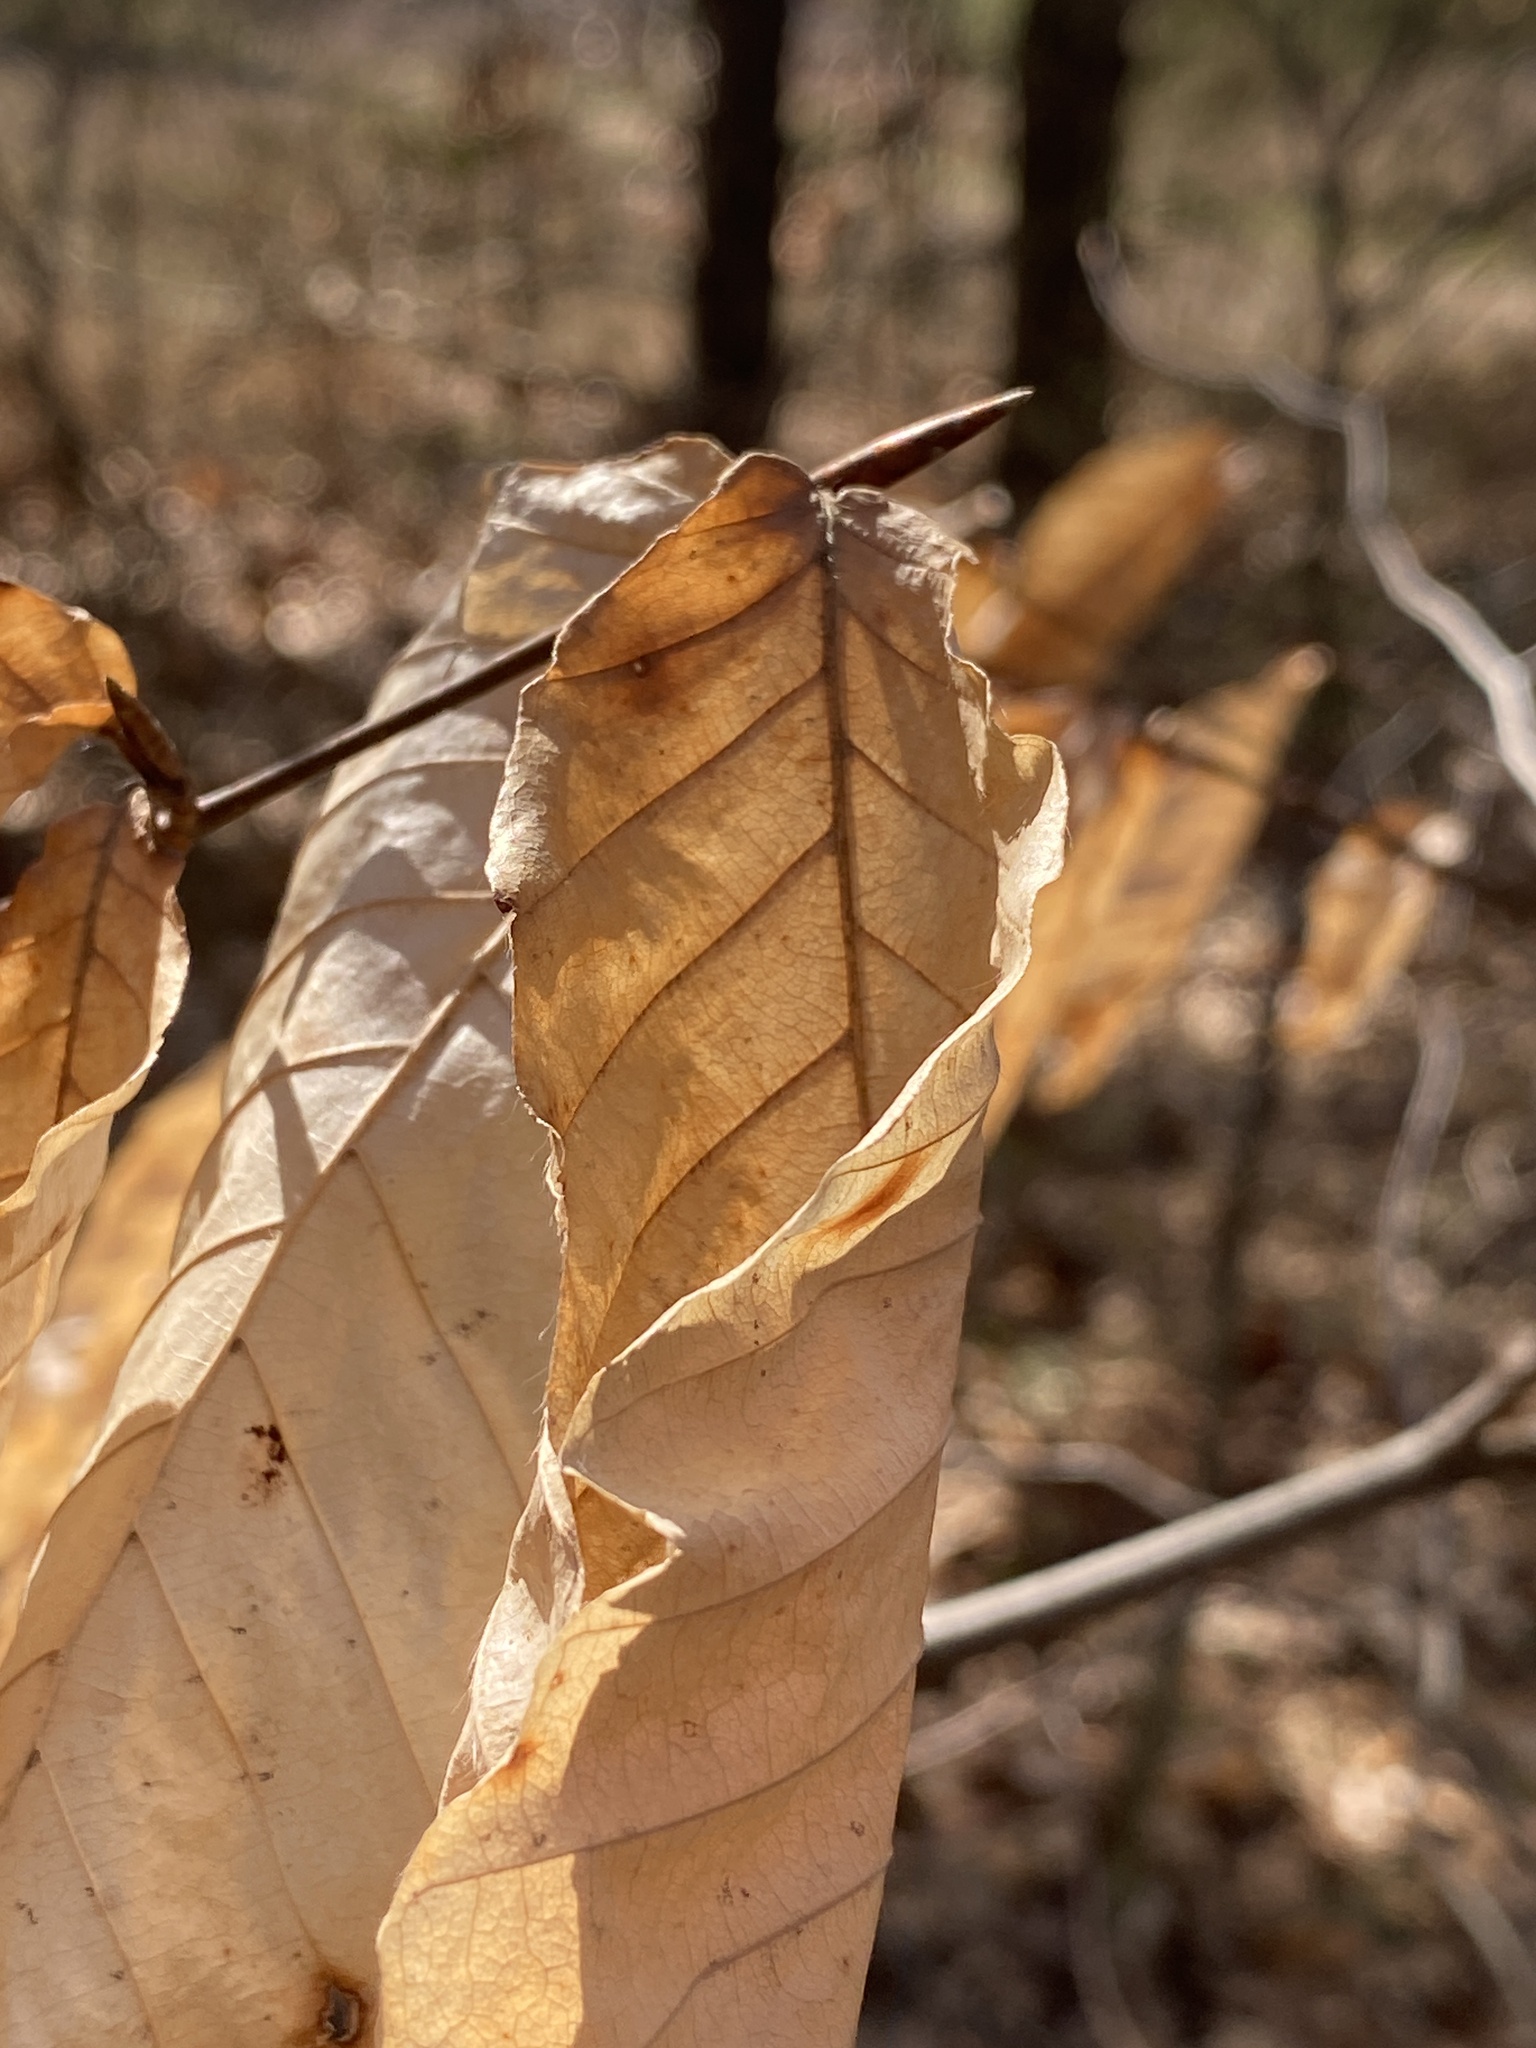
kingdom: Plantae
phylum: Tracheophyta
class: Magnoliopsida
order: Fagales
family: Fagaceae
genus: Fagus
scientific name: Fagus grandifolia
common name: American beech
